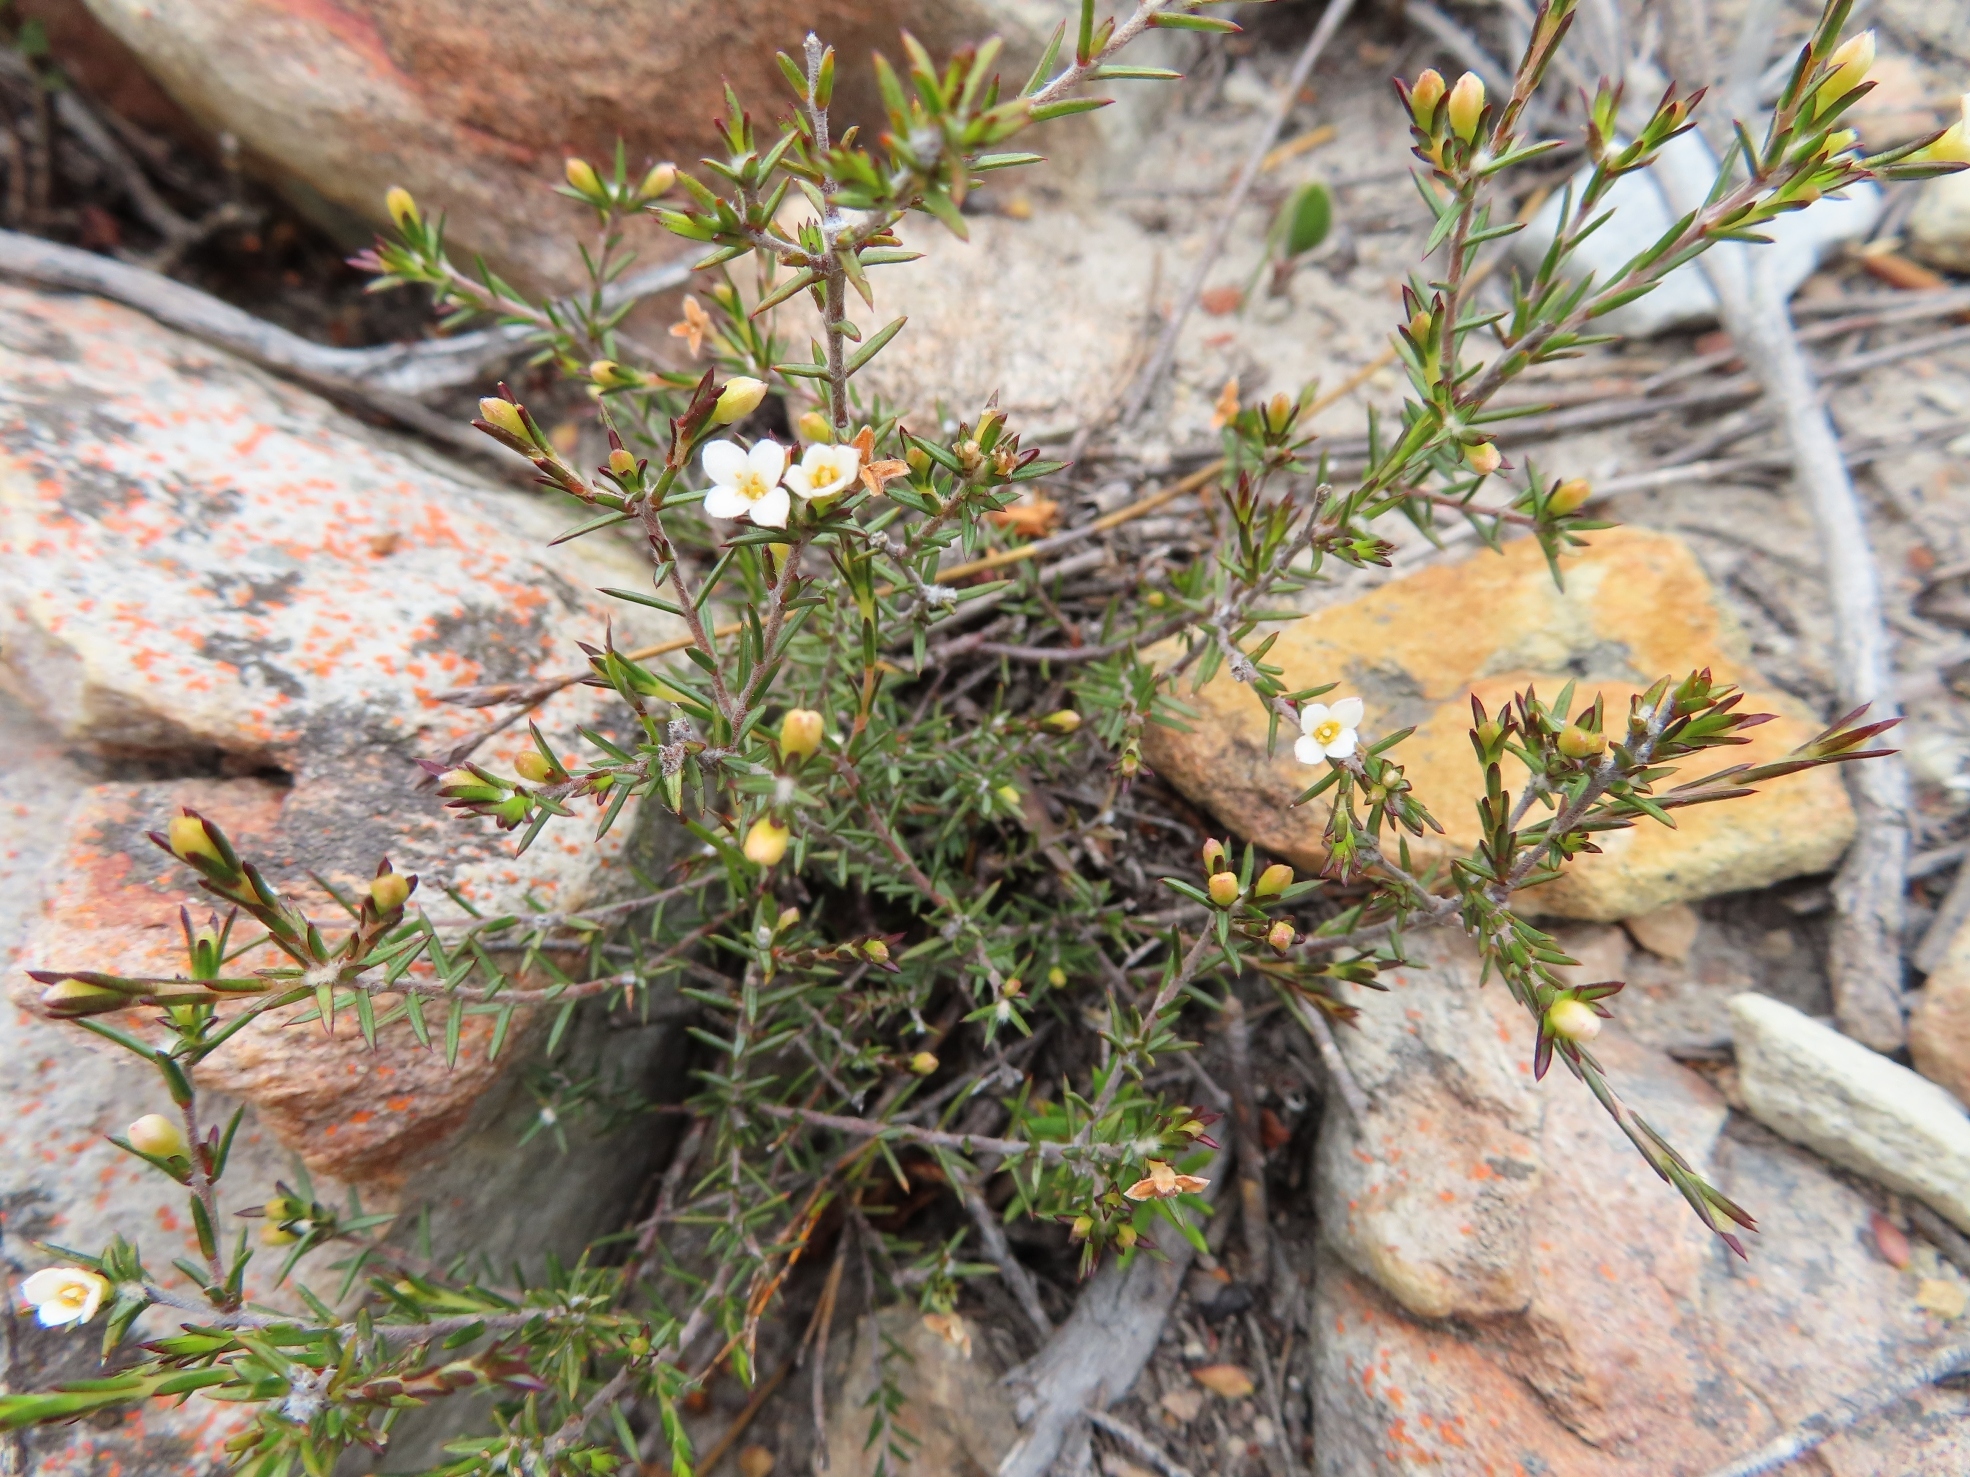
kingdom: Plantae
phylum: Tracheophyta
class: Magnoliopsida
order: Malvales
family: Thymelaeaceae
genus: Lachnaea
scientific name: Lachnaea filicaulis
